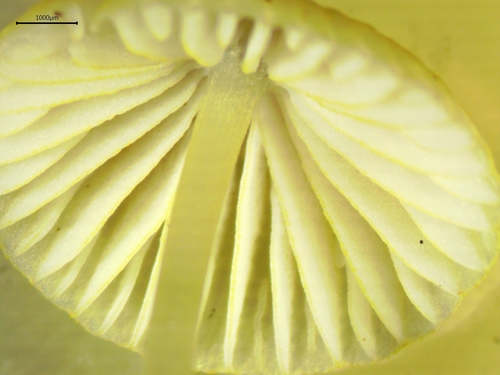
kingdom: Fungi
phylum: Basidiomycota
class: Agaricomycetes
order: Agaricales
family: Mycenaceae
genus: Mycena
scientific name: Mycena citrinomarginata
